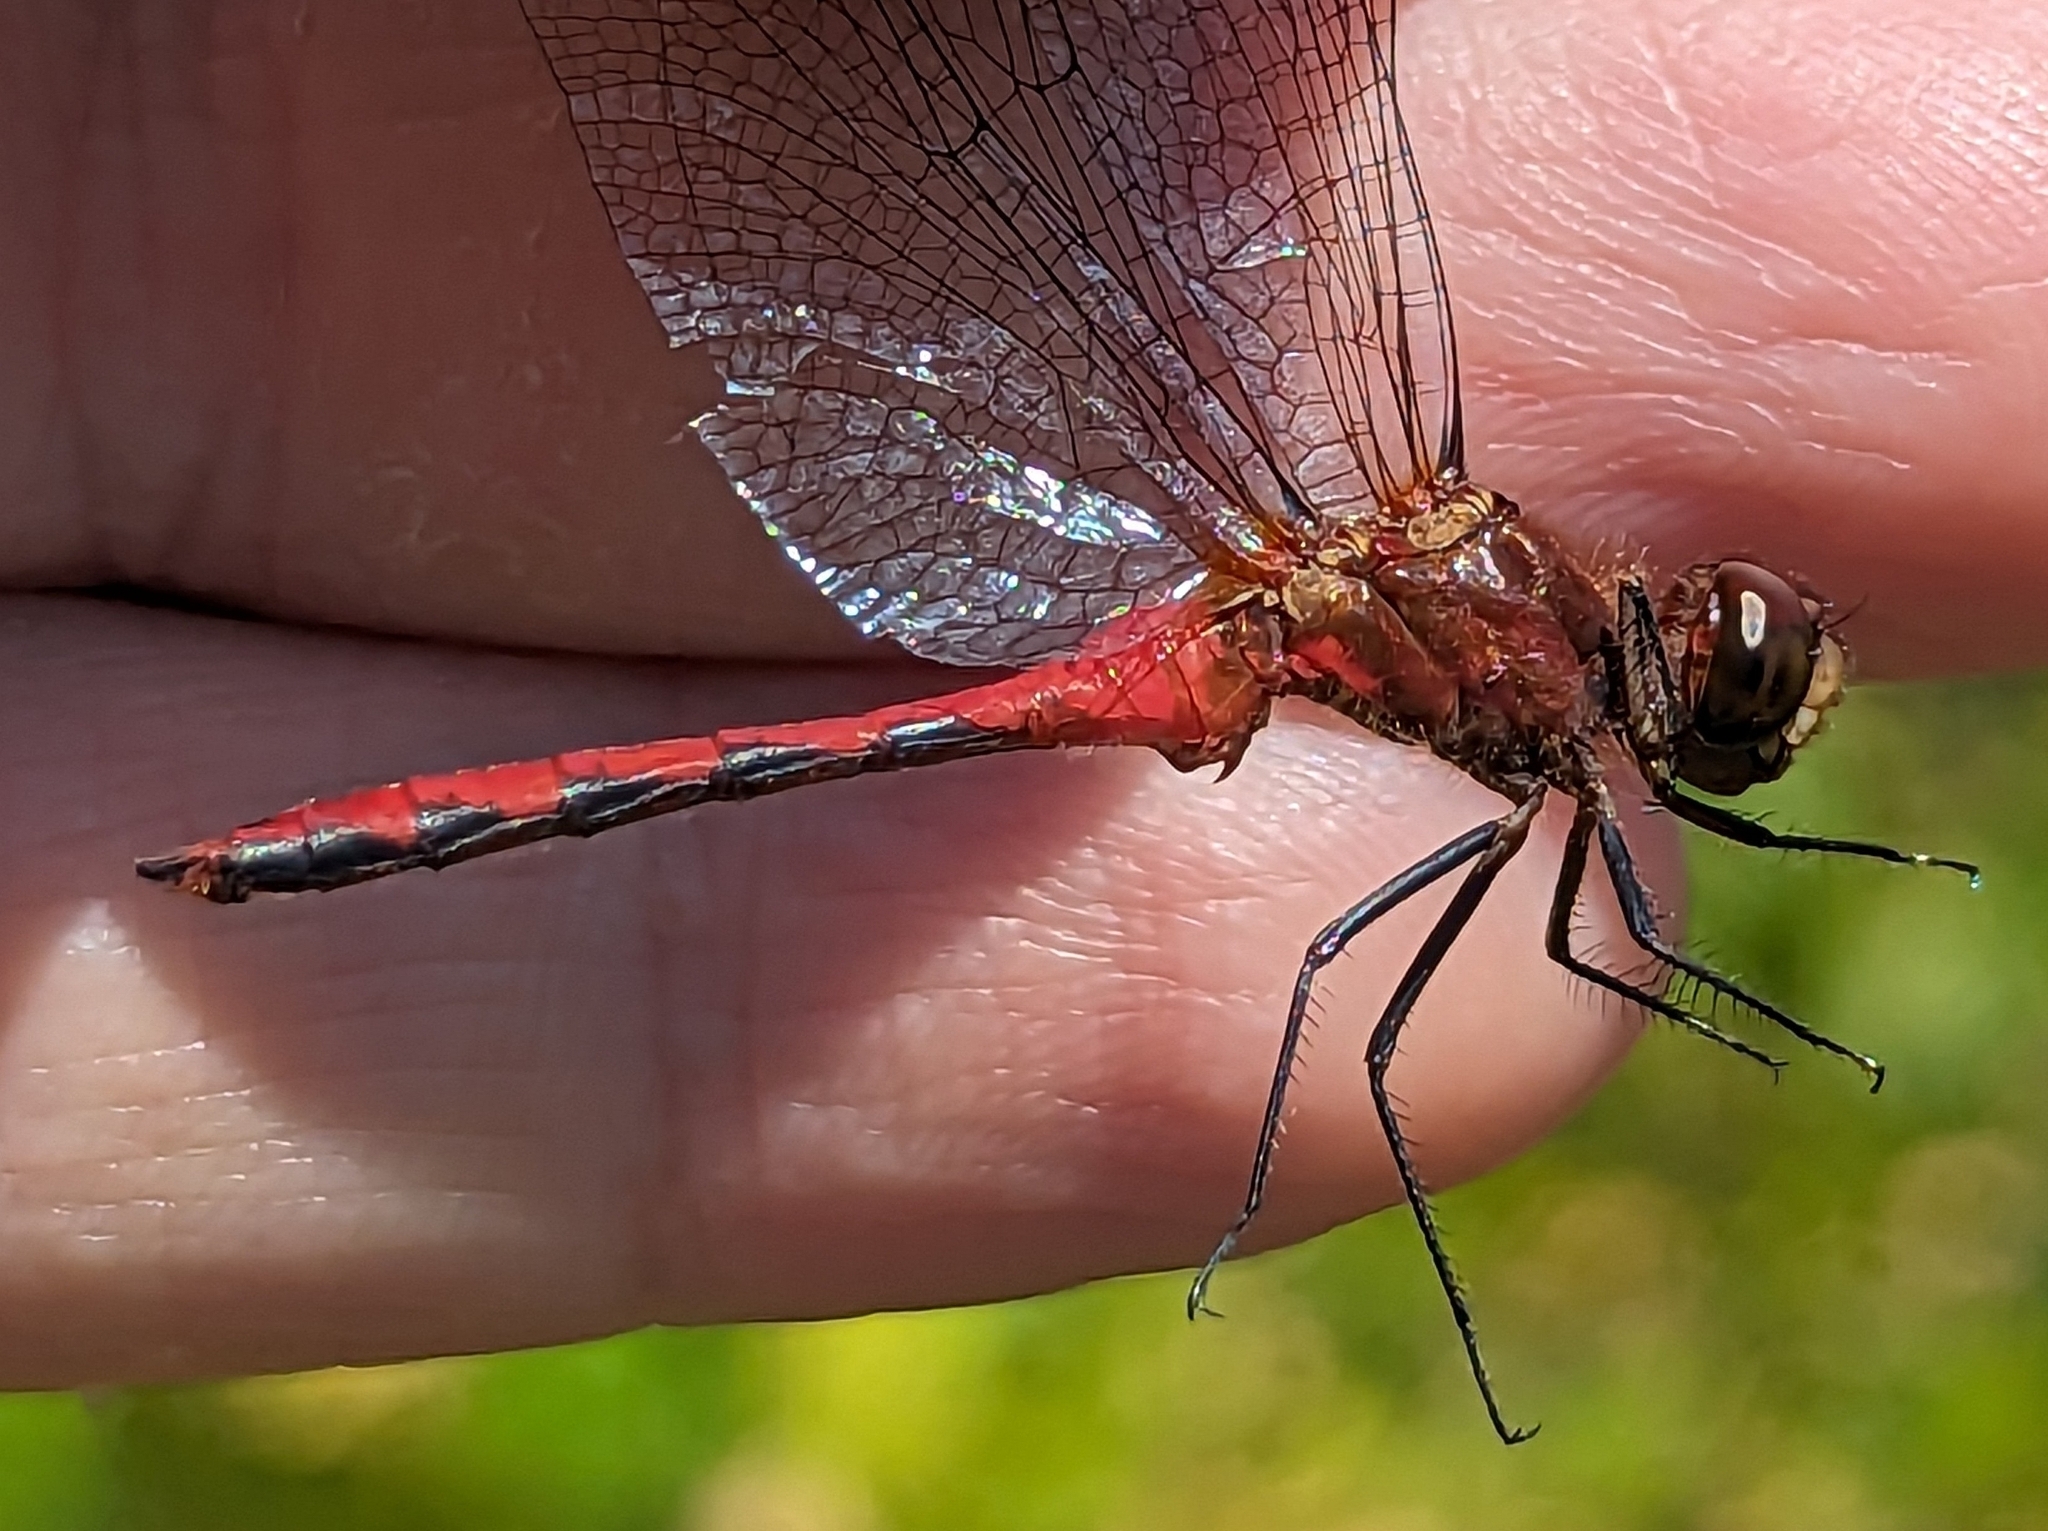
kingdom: Animalia
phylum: Arthropoda
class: Insecta
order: Odonata
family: Libellulidae
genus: Sympetrum
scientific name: Sympetrum rubicundulum
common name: Ruby meadowhawk
